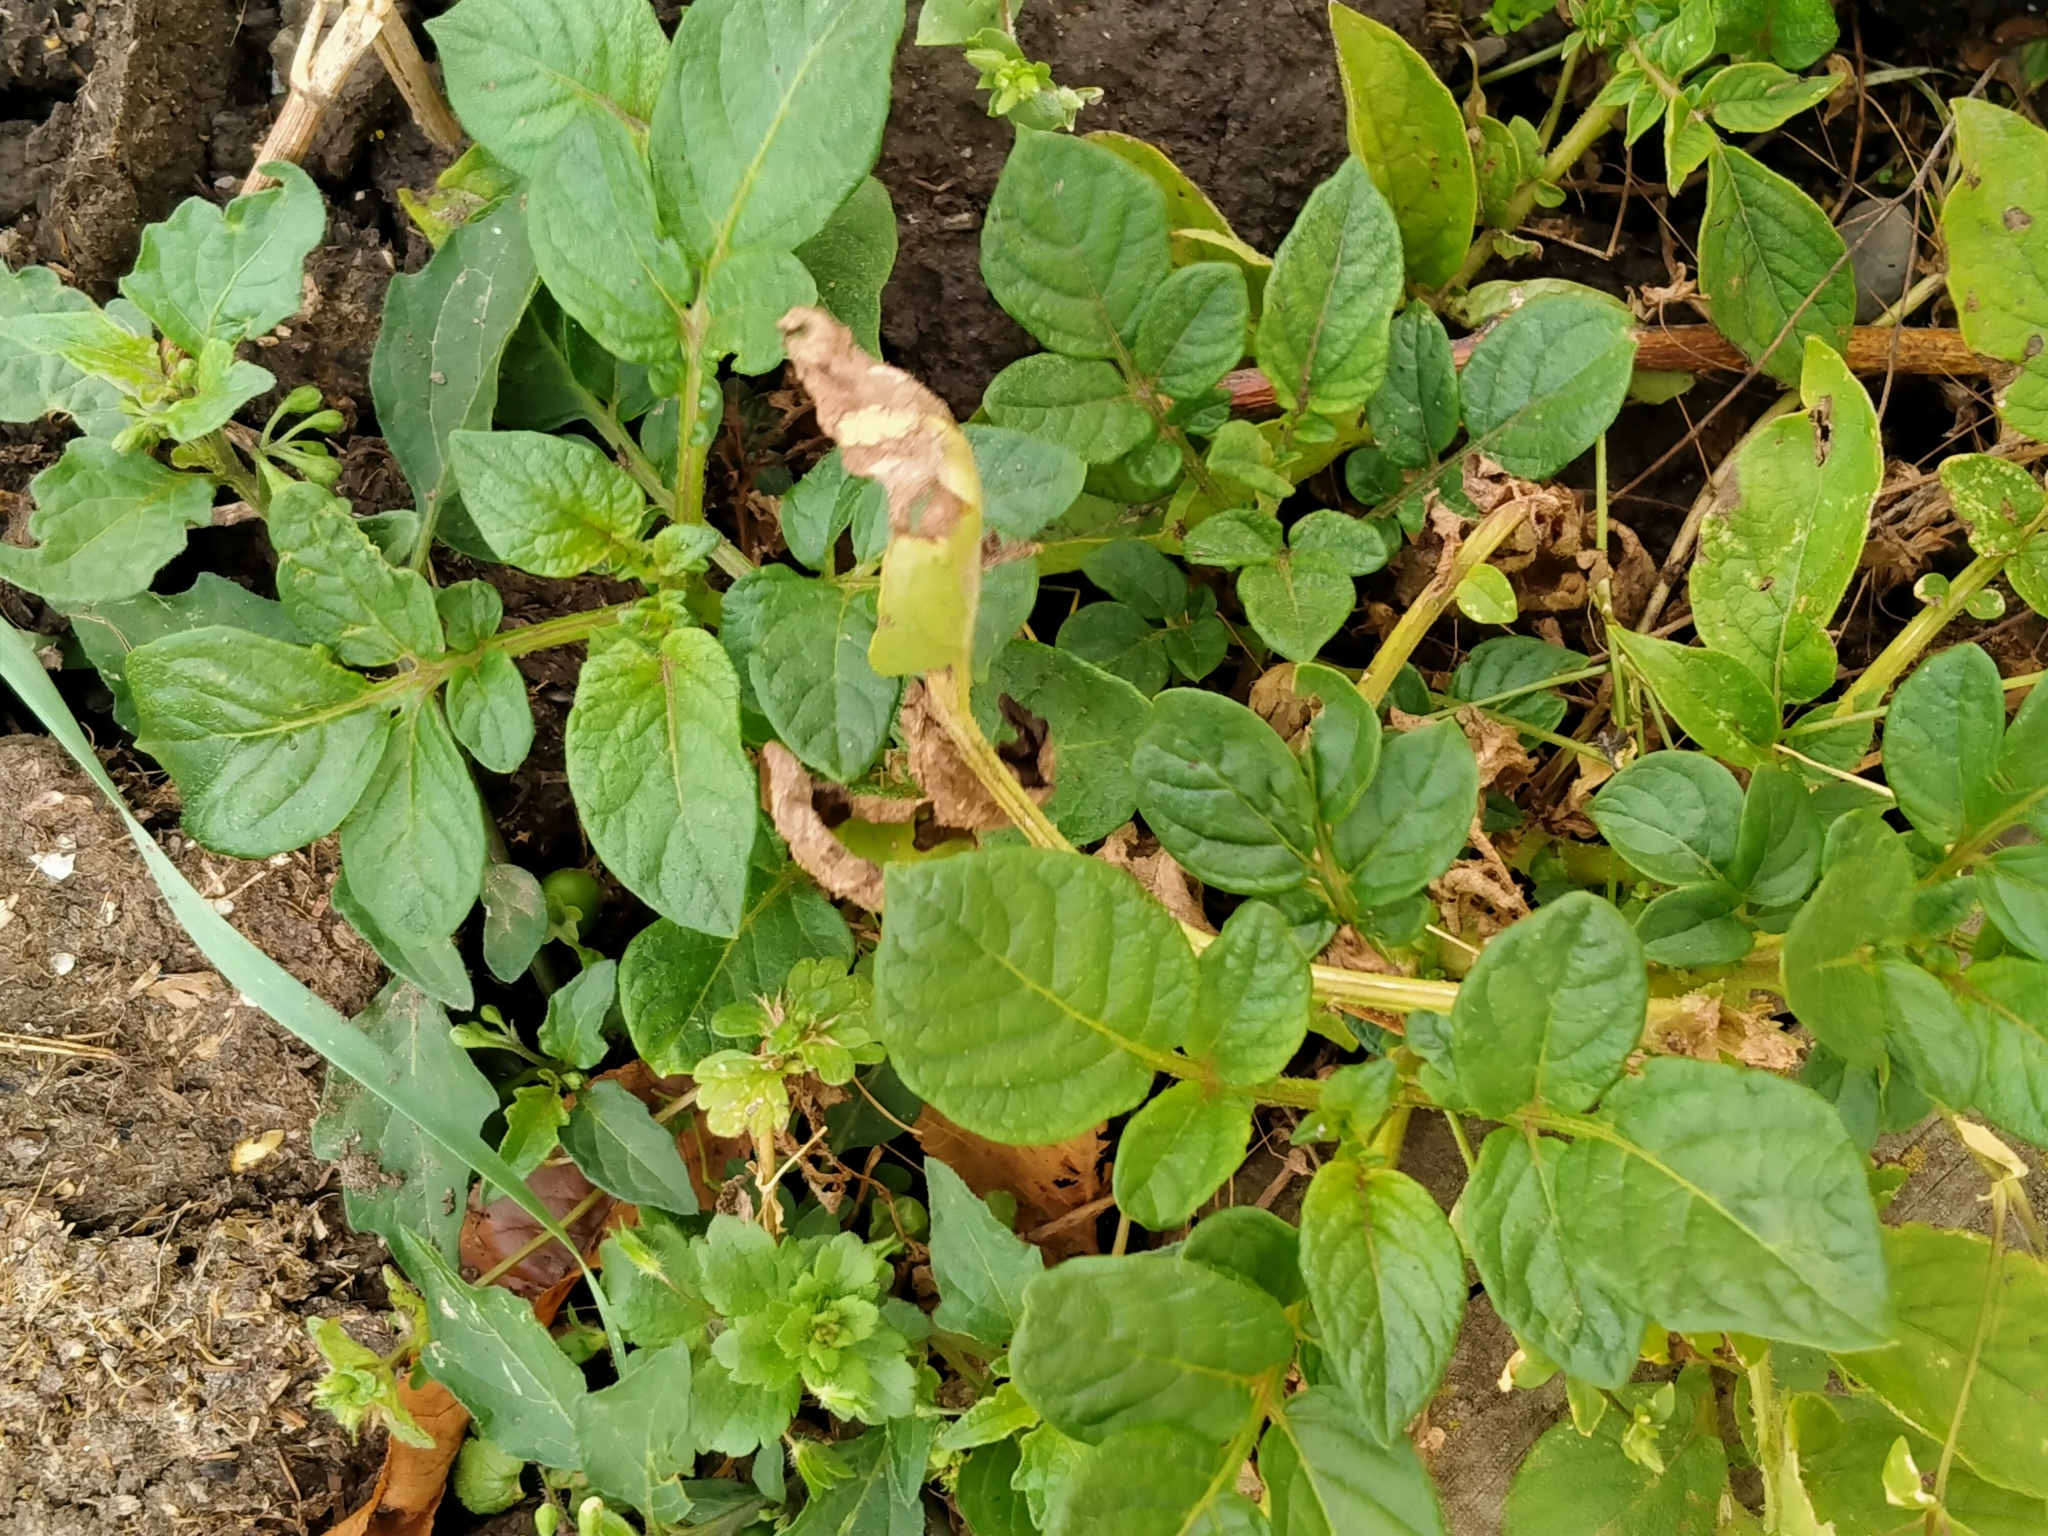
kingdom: Plantae
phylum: Tracheophyta
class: Magnoliopsida
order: Solanales
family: Solanaceae
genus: Solanum
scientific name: Solanum tuberosum
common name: Potato
